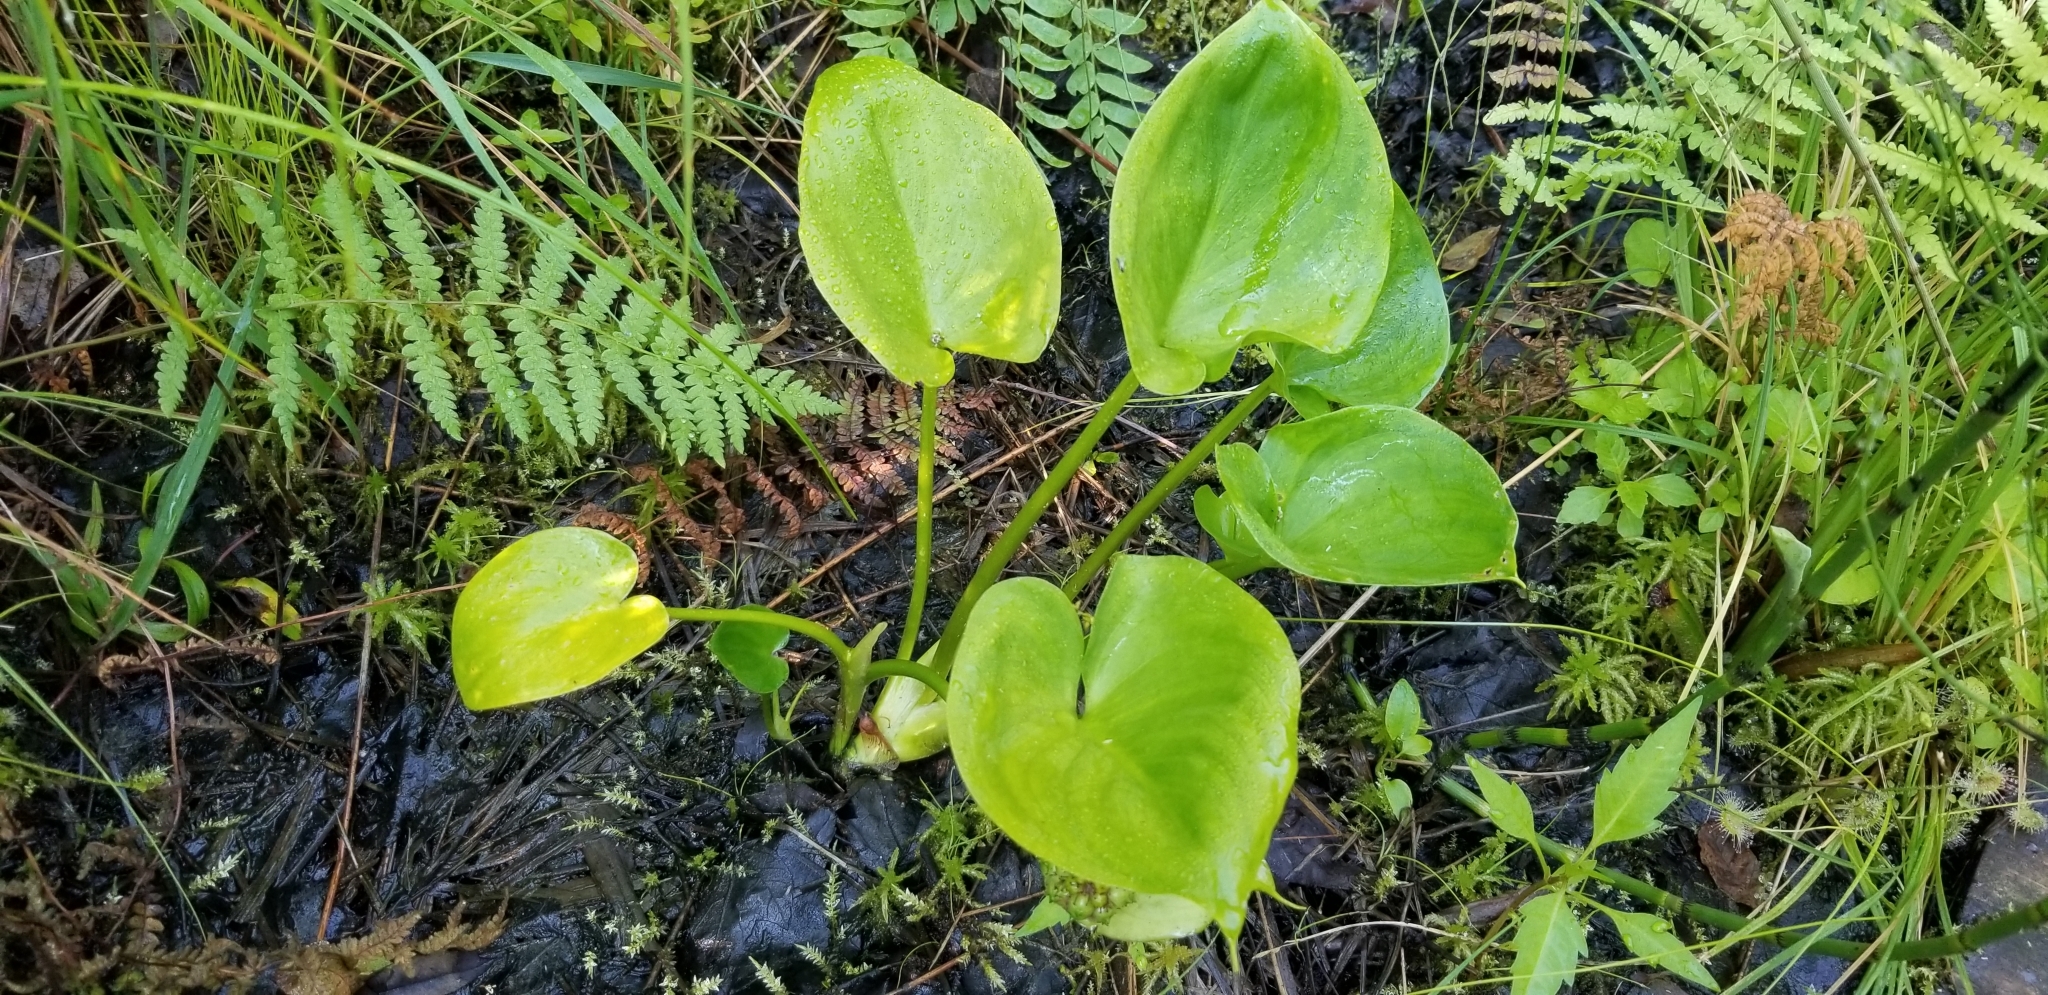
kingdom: Plantae
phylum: Tracheophyta
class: Liliopsida
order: Alismatales
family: Araceae
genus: Calla
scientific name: Calla palustris
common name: Bog arum
